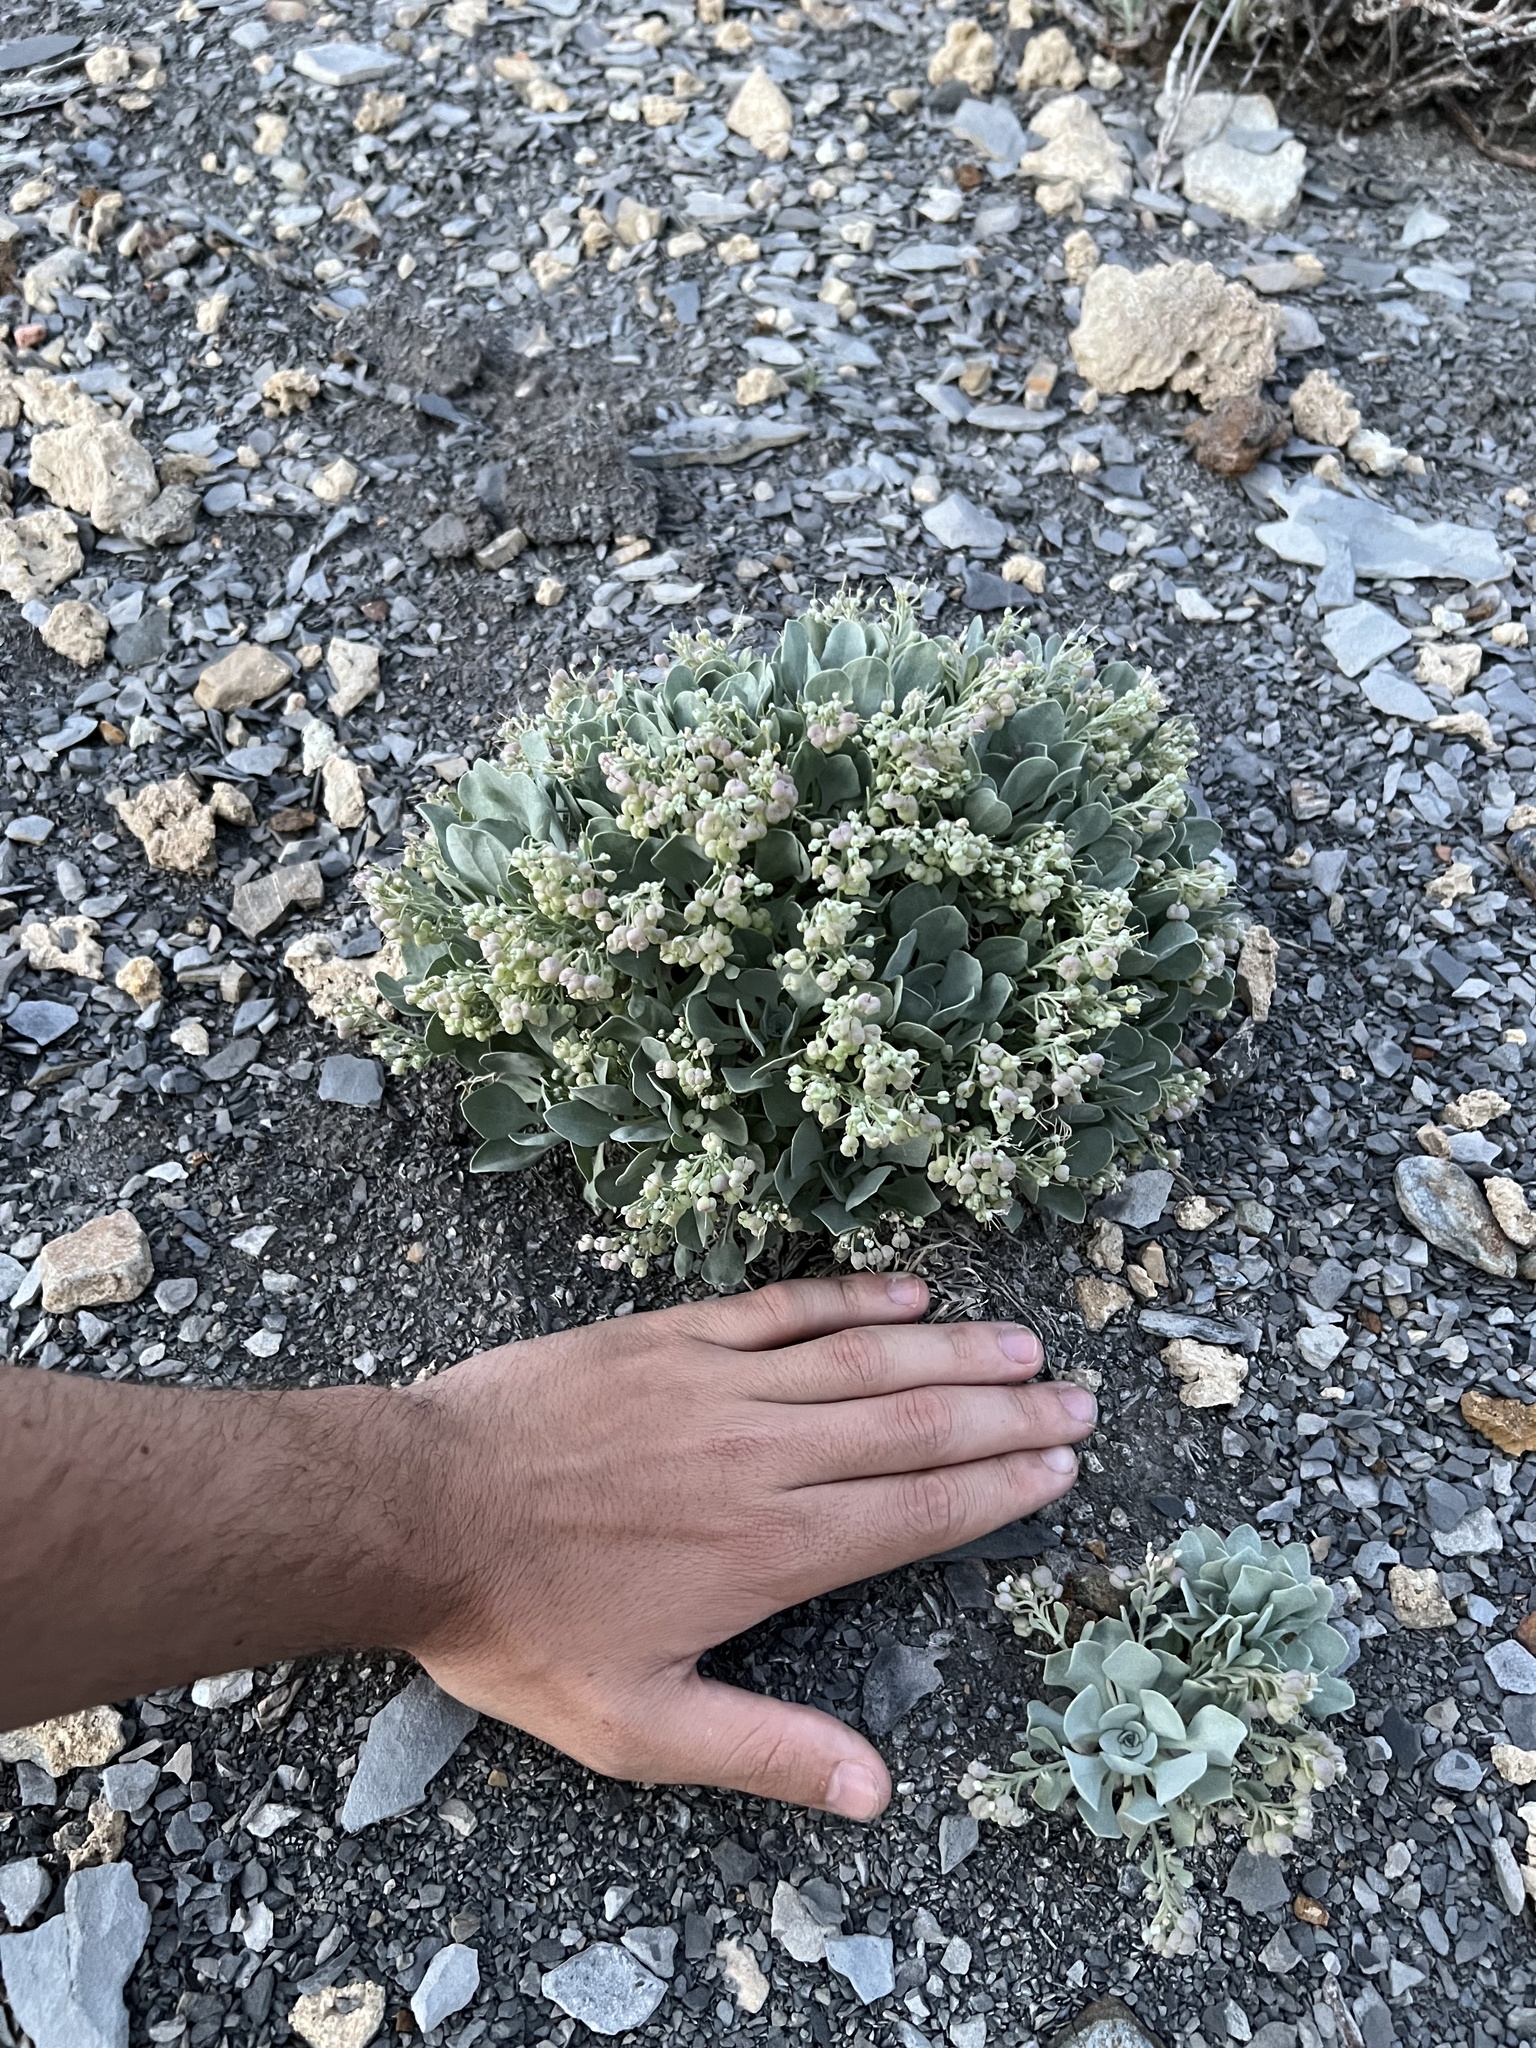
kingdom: Plantae
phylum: Tracheophyta
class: Magnoliopsida
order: Brassicales
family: Brassicaceae
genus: Physaria
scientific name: Physaria bellii
